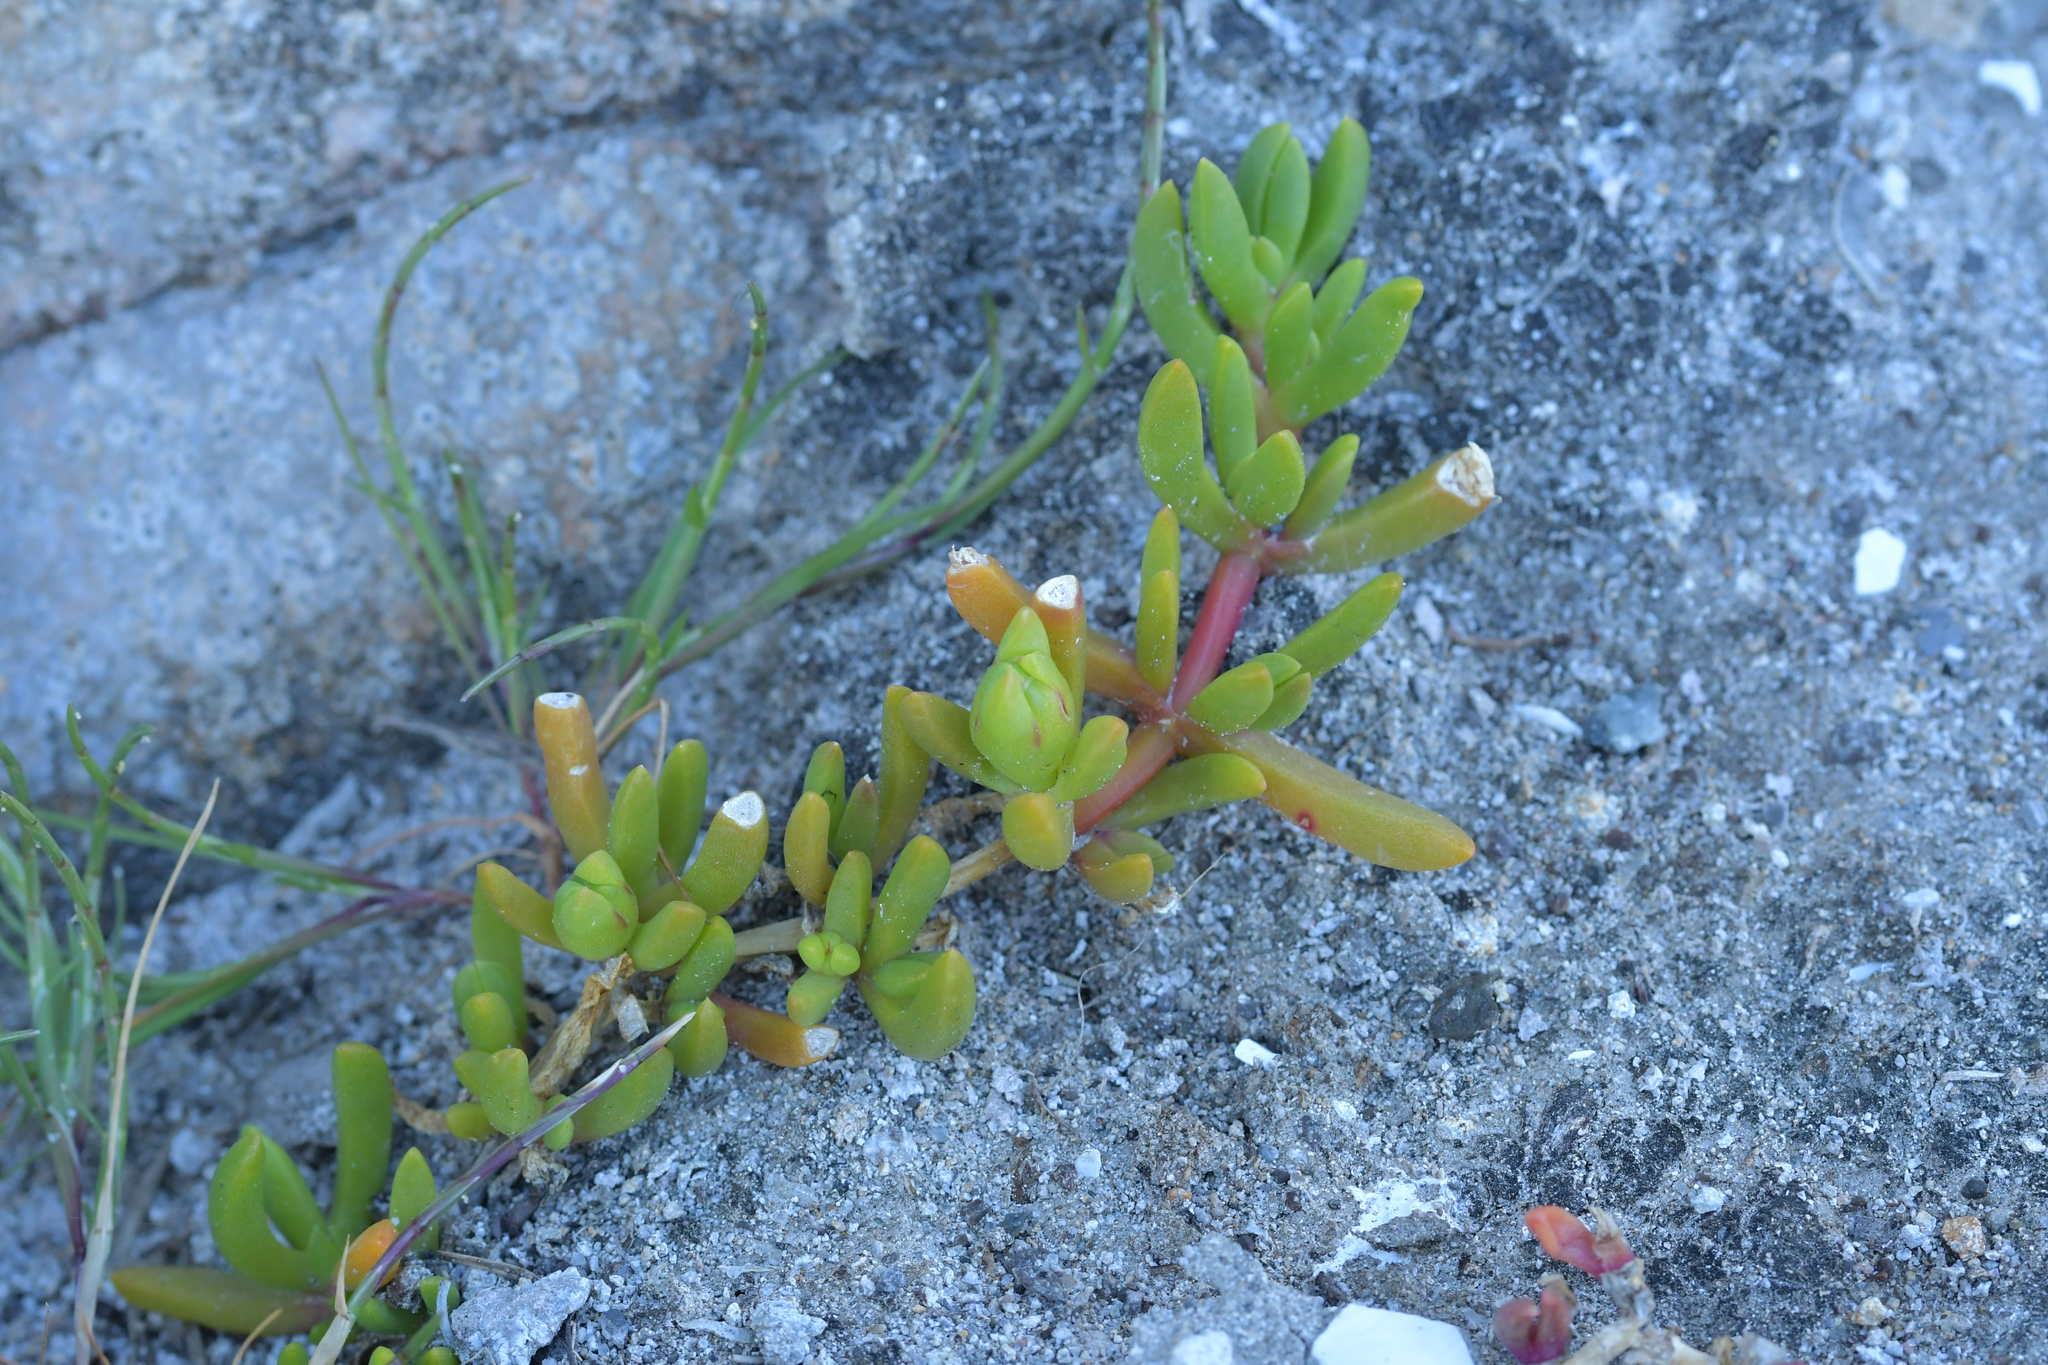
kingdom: Plantae
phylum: Tracheophyta
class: Magnoliopsida
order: Caryophyllales
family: Aizoaceae
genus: Disphyma
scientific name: Disphyma australe
